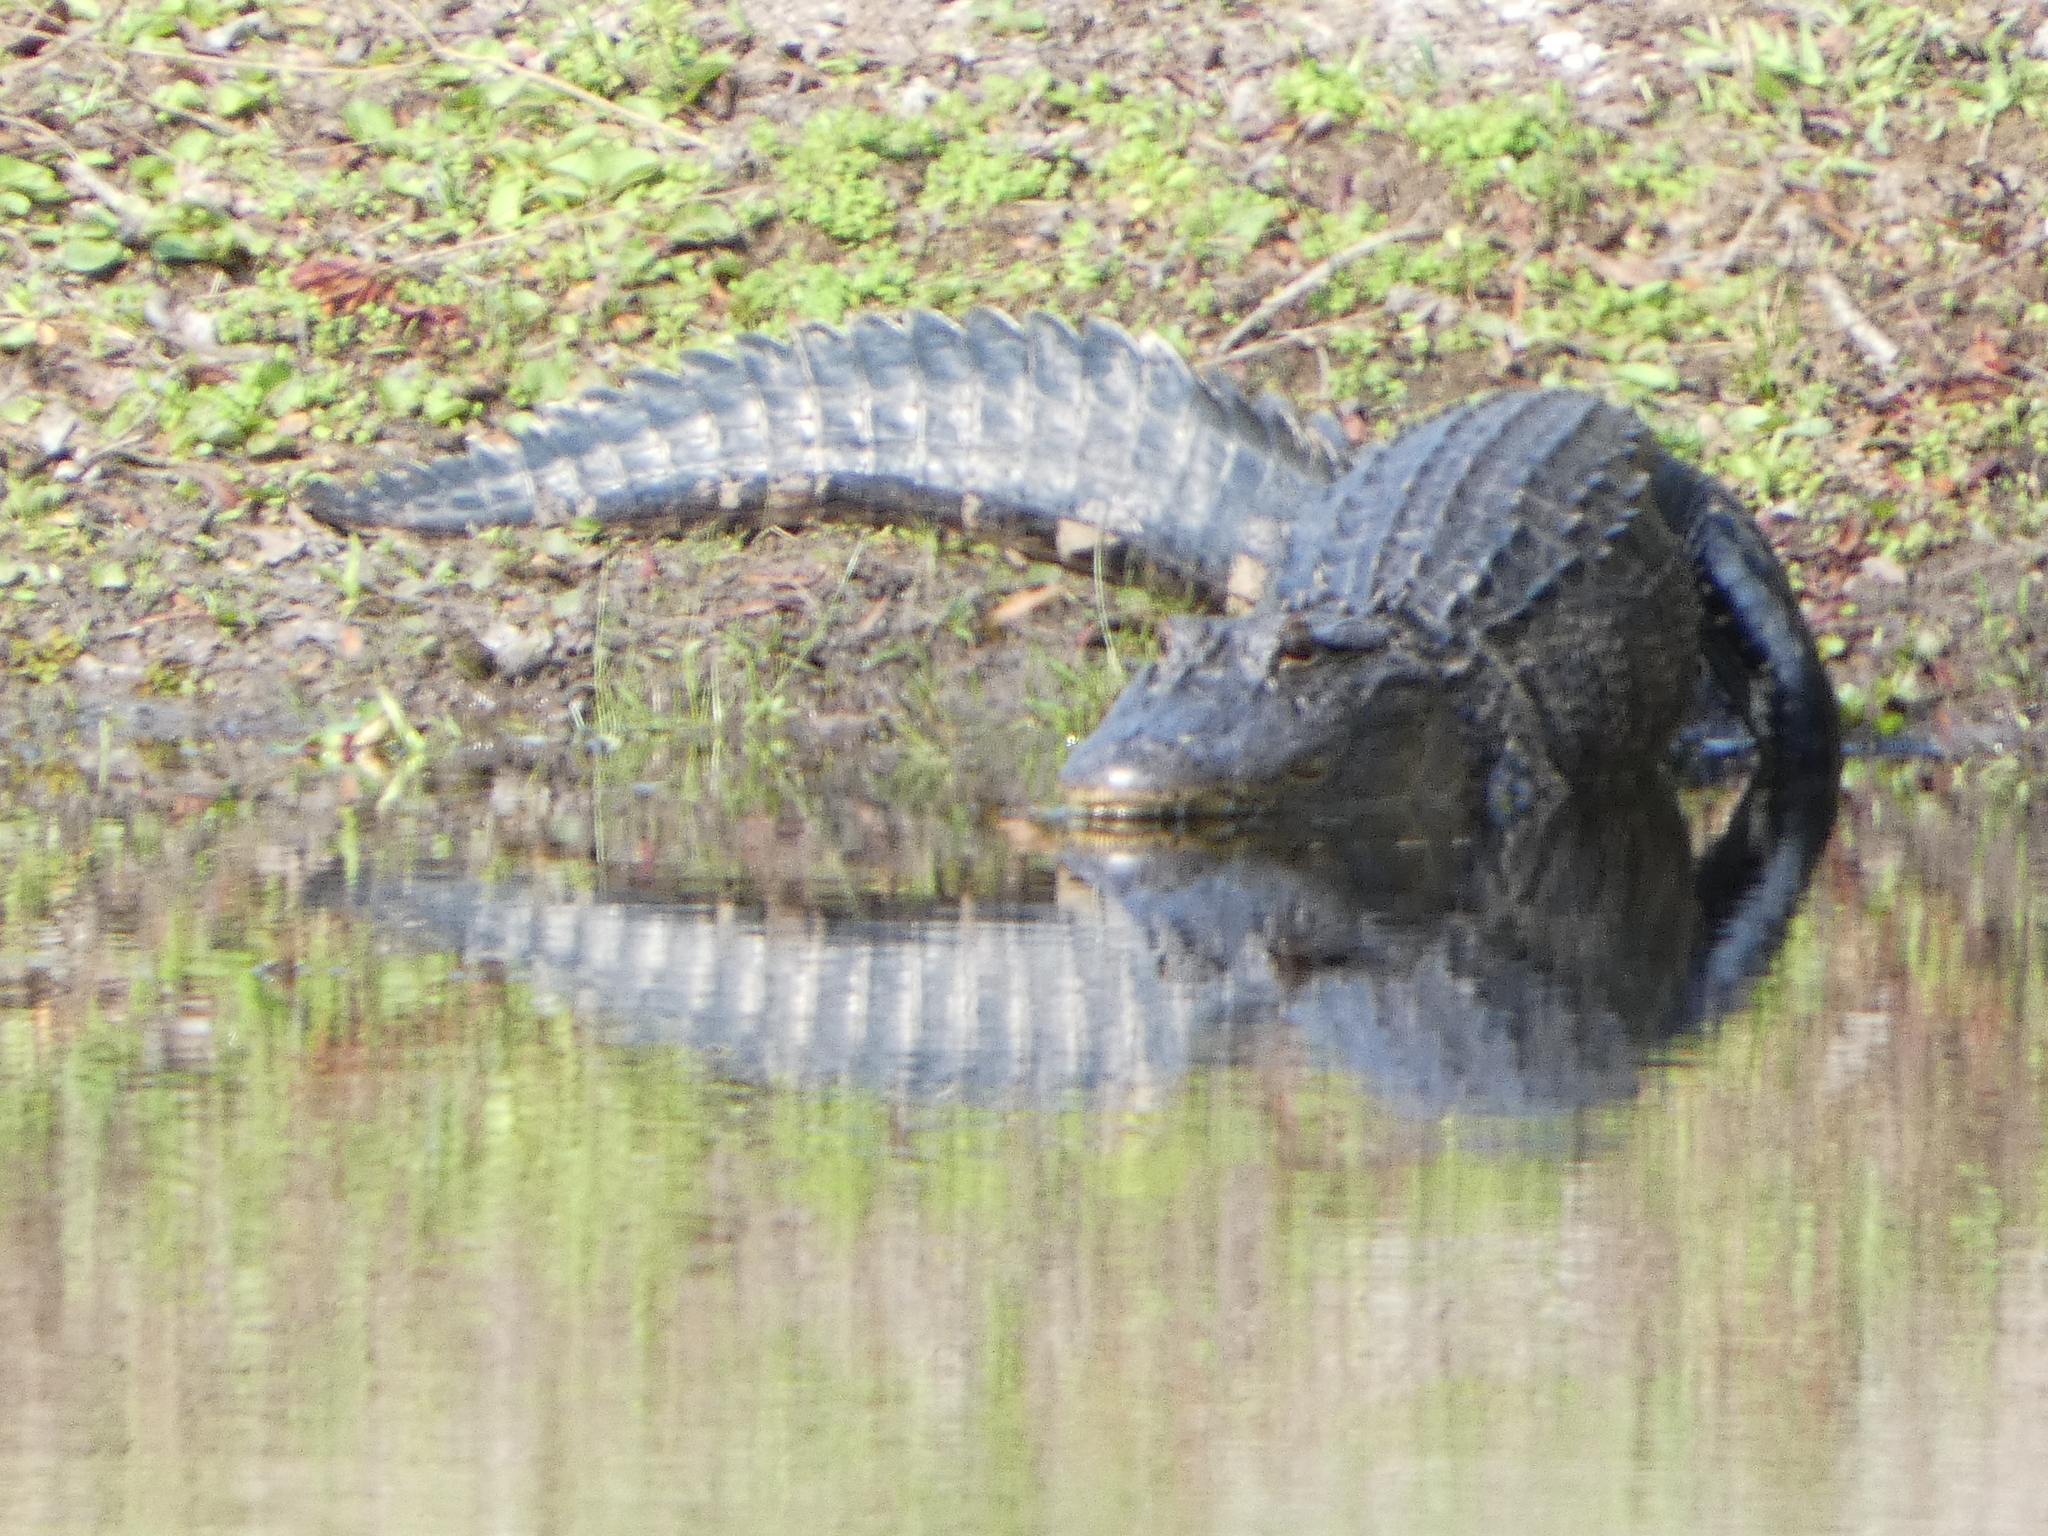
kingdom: Animalia
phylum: Chordata
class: Crocodylia
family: Alligatoridae
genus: Alligator
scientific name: Alligator mississippiensis
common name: American alligator
